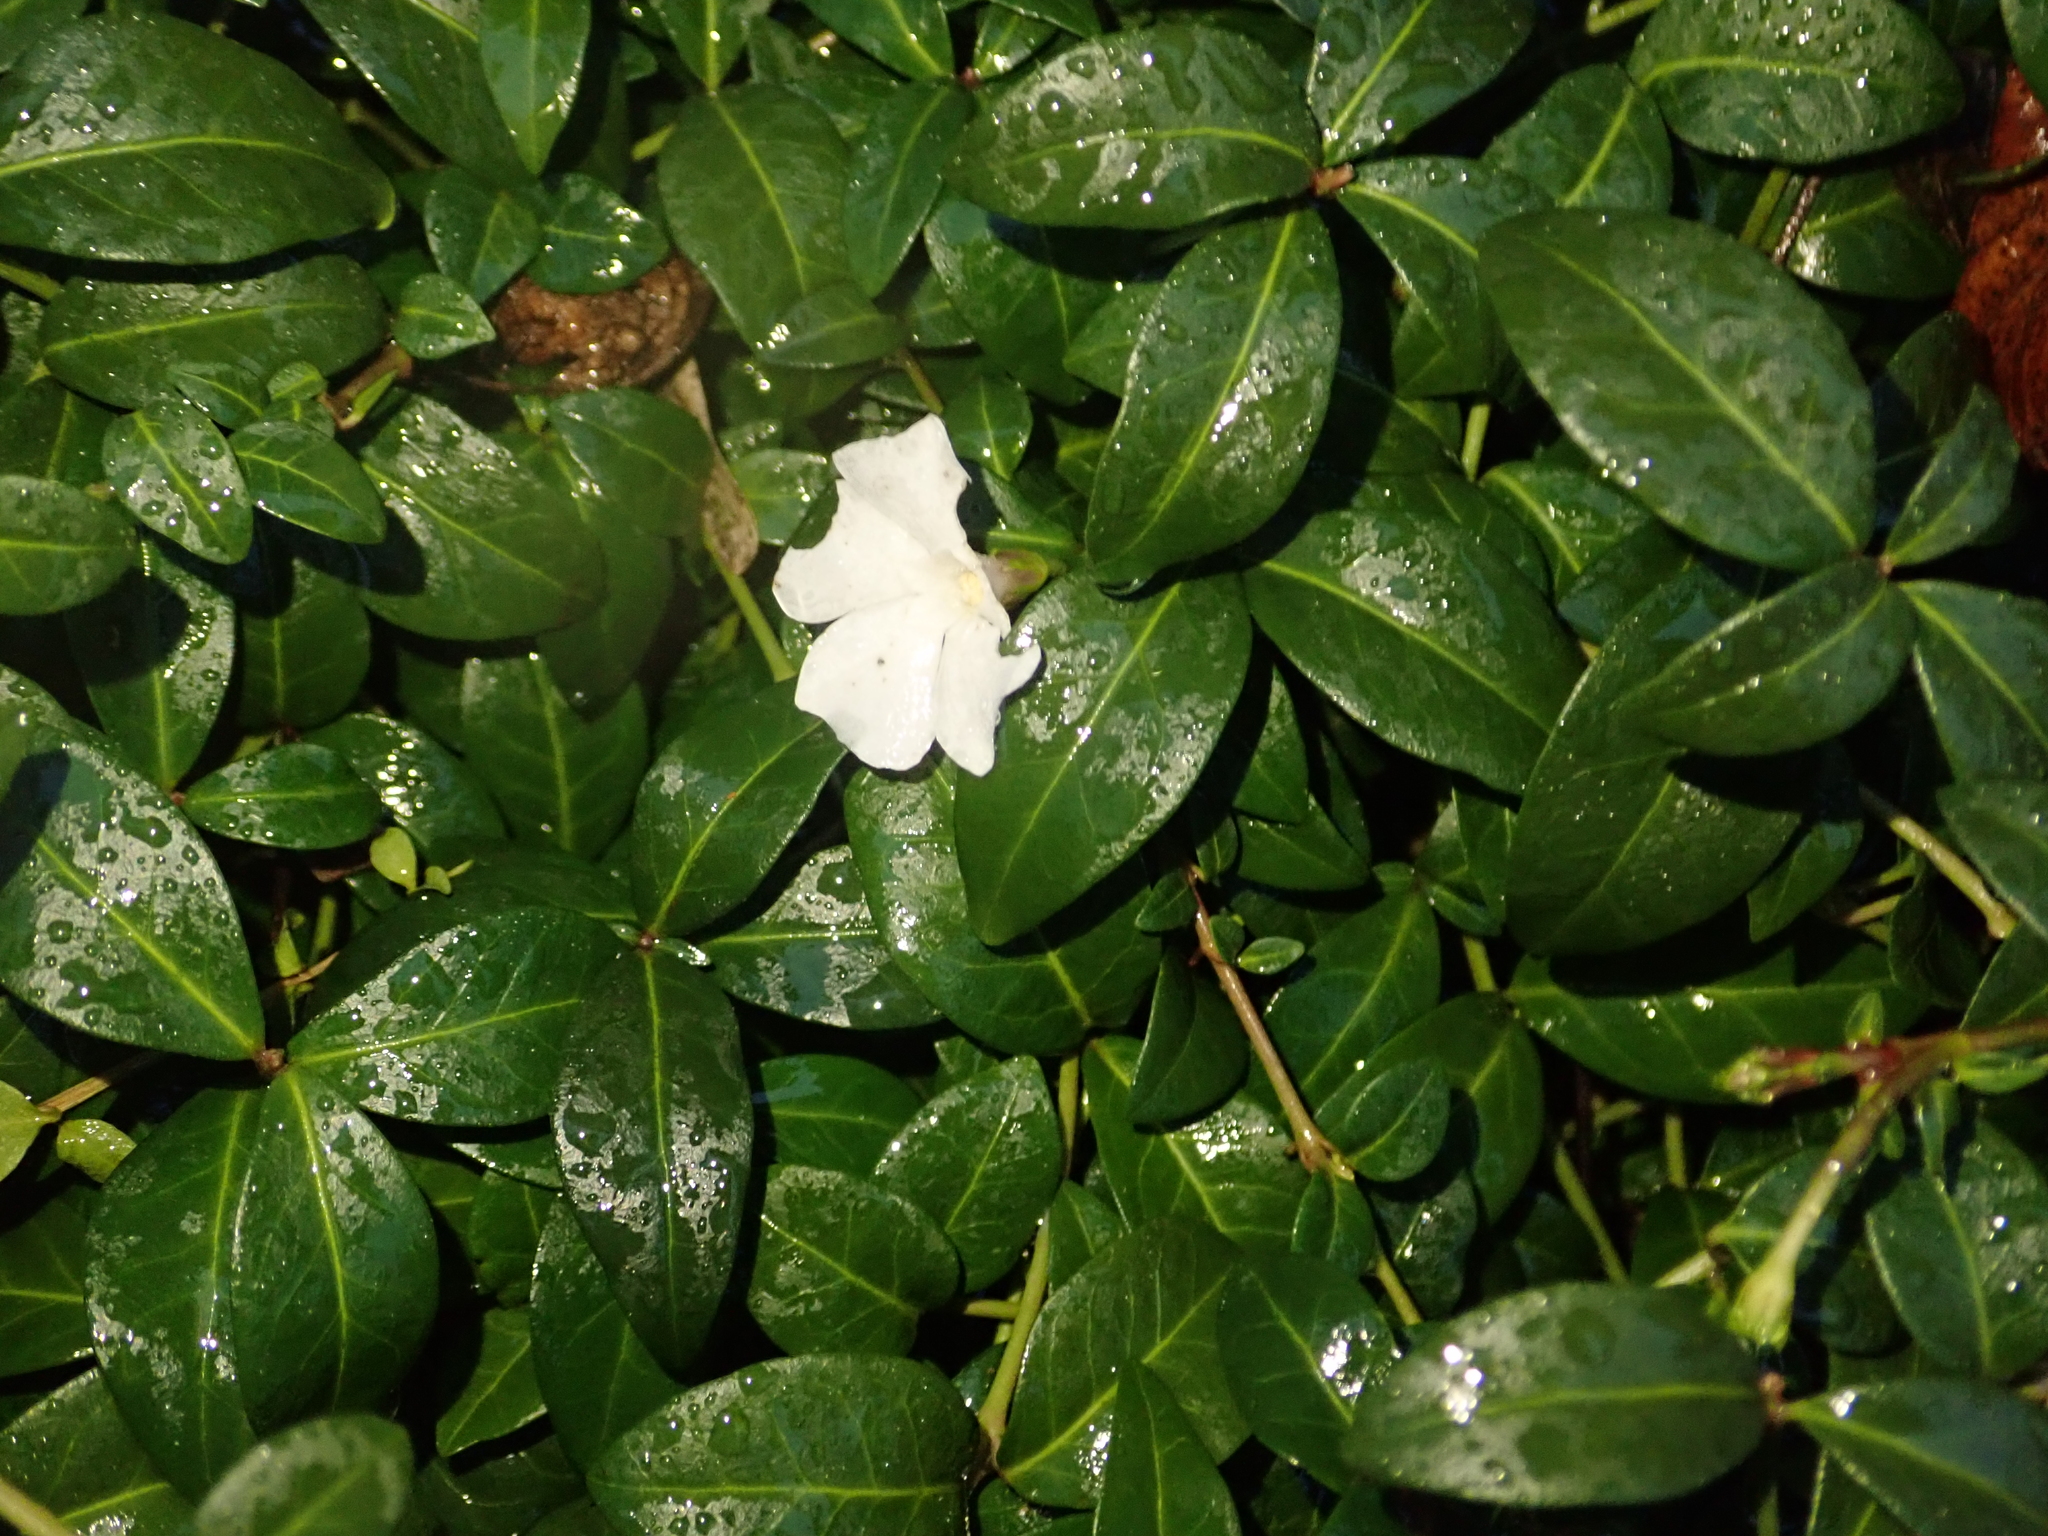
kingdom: Plantae
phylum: Tracheophyta
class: Magnoliopsida
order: Gentianales
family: Apocynaceae
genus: Vinca
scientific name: Vinca minor
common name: Lesser periwinkle
